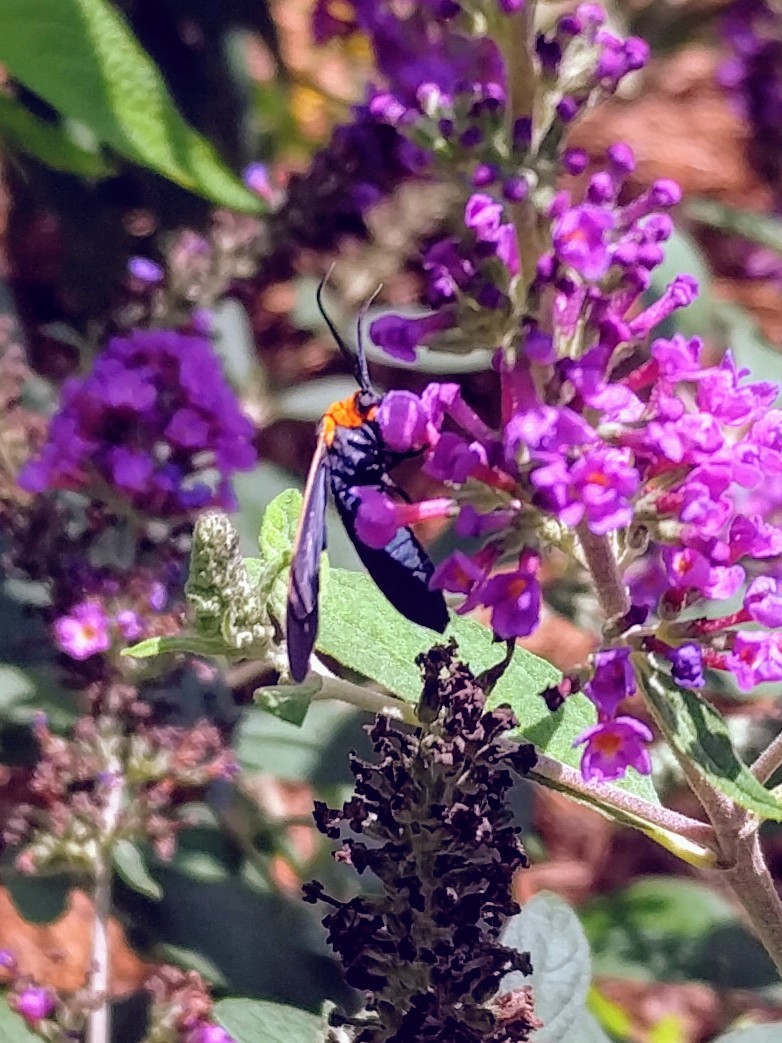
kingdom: Animalia
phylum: Arthropoda
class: Insecta
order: Lepidoptera
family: Erebidae
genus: Cisseps
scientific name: Cisseps fulvicollis
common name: Yellow-collared scape moth
